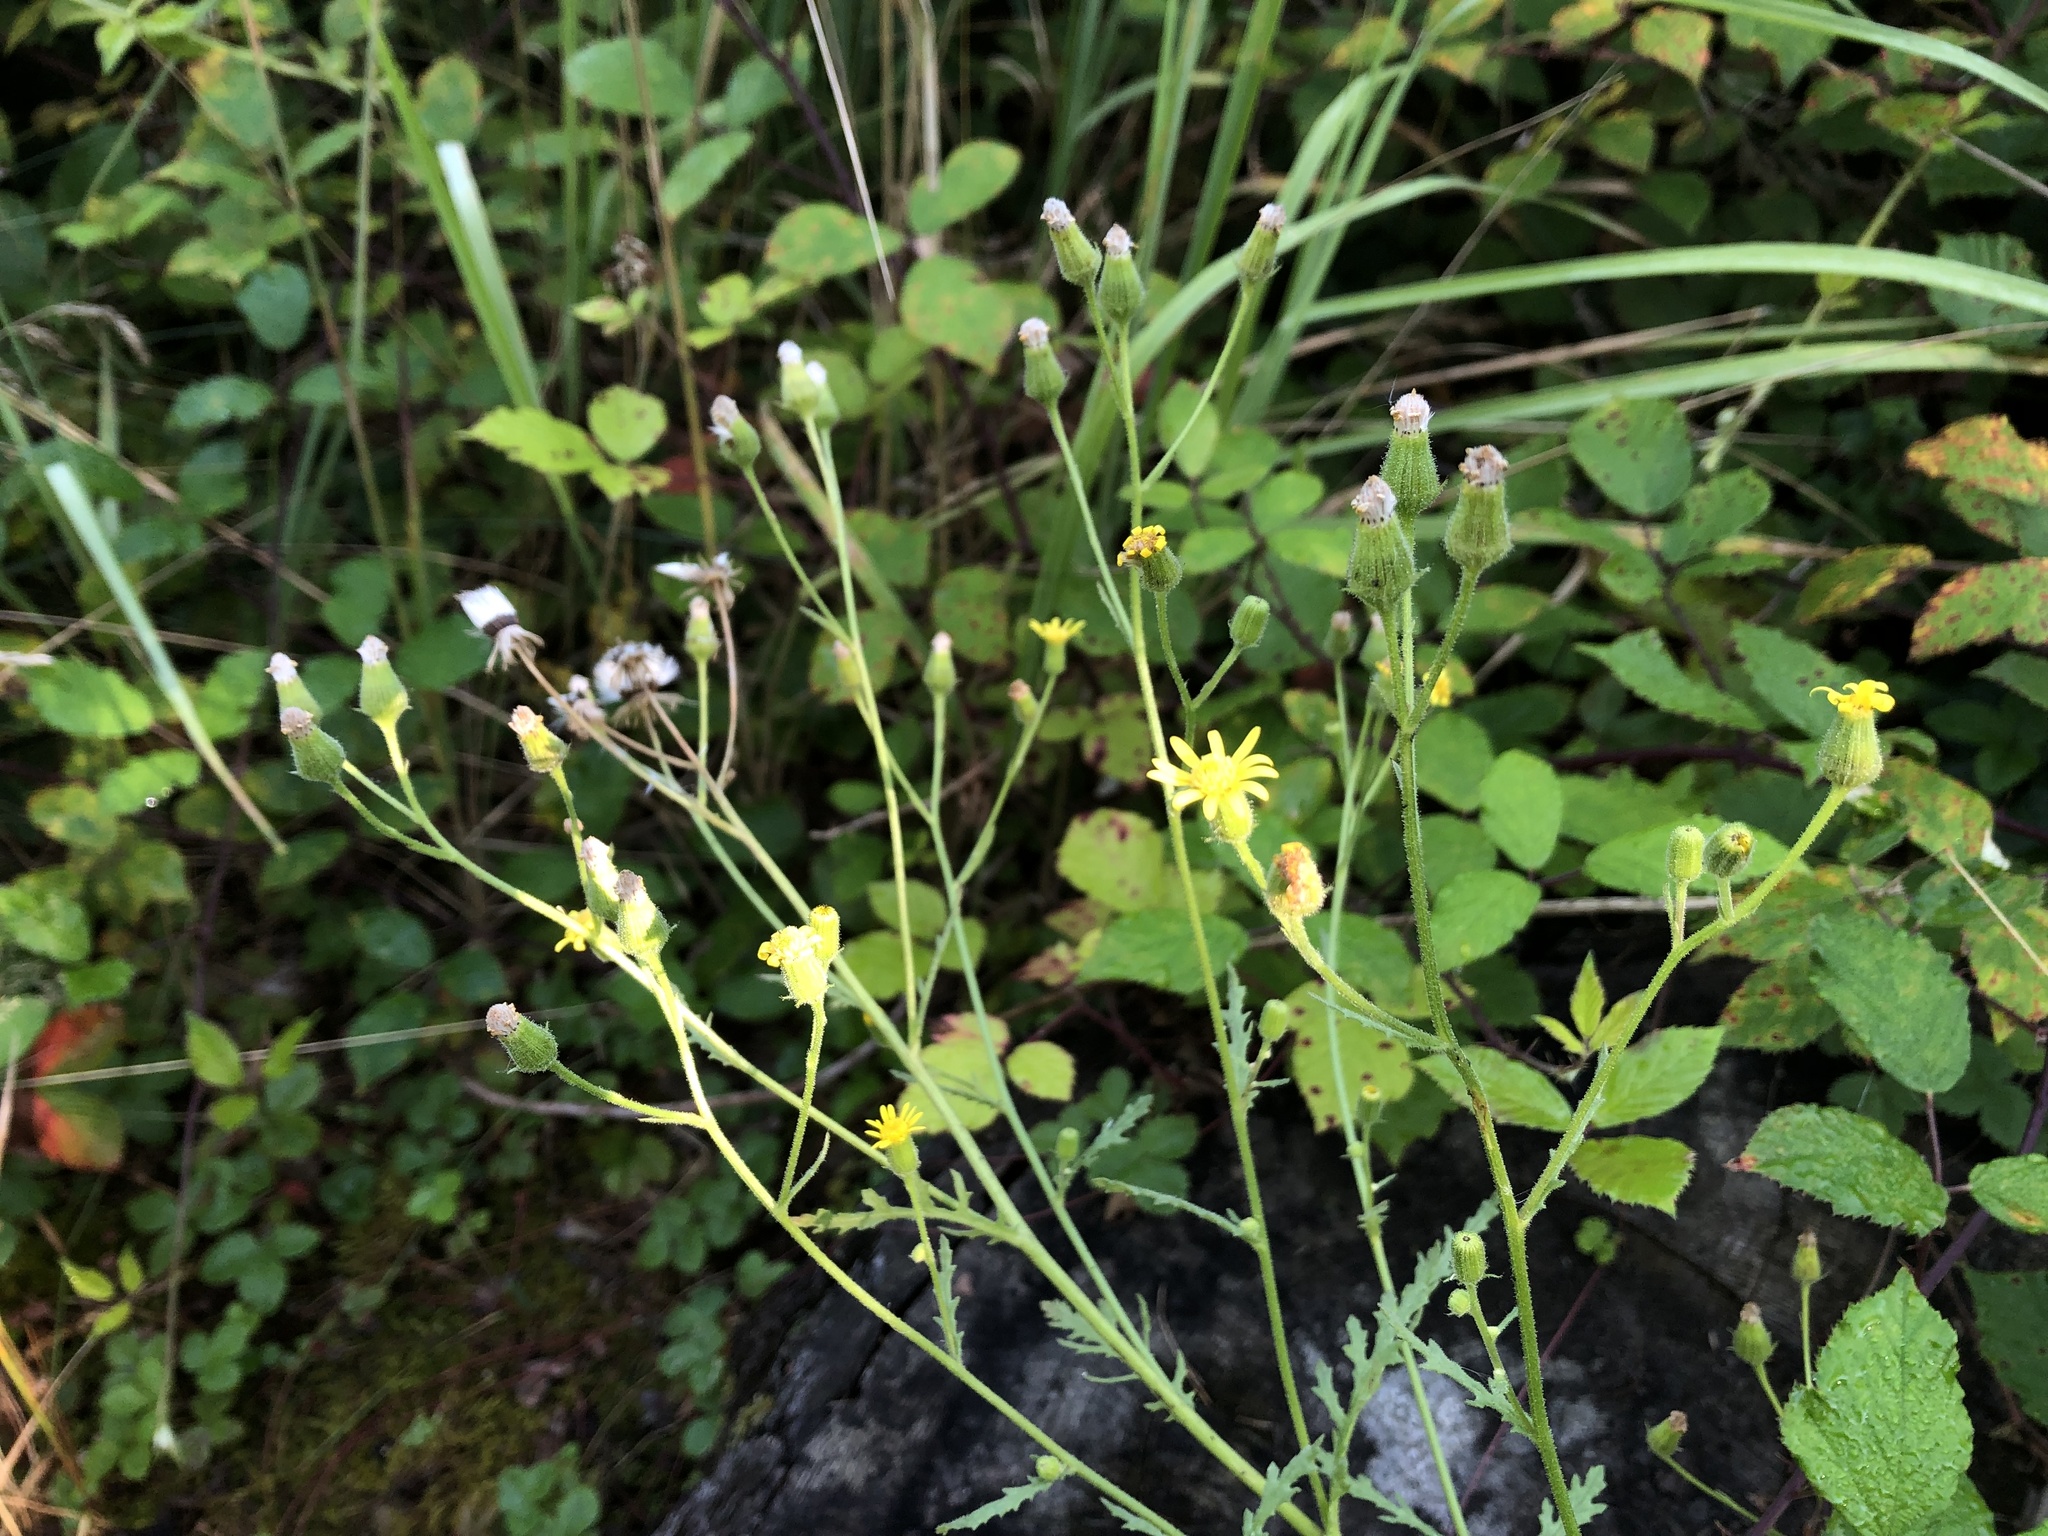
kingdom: Plantae
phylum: Tracheophyta
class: Magnoliopsida
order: Asterales
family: Asteraceae
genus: Senecio
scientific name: Senecio viscosus
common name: Sticky groundsel
